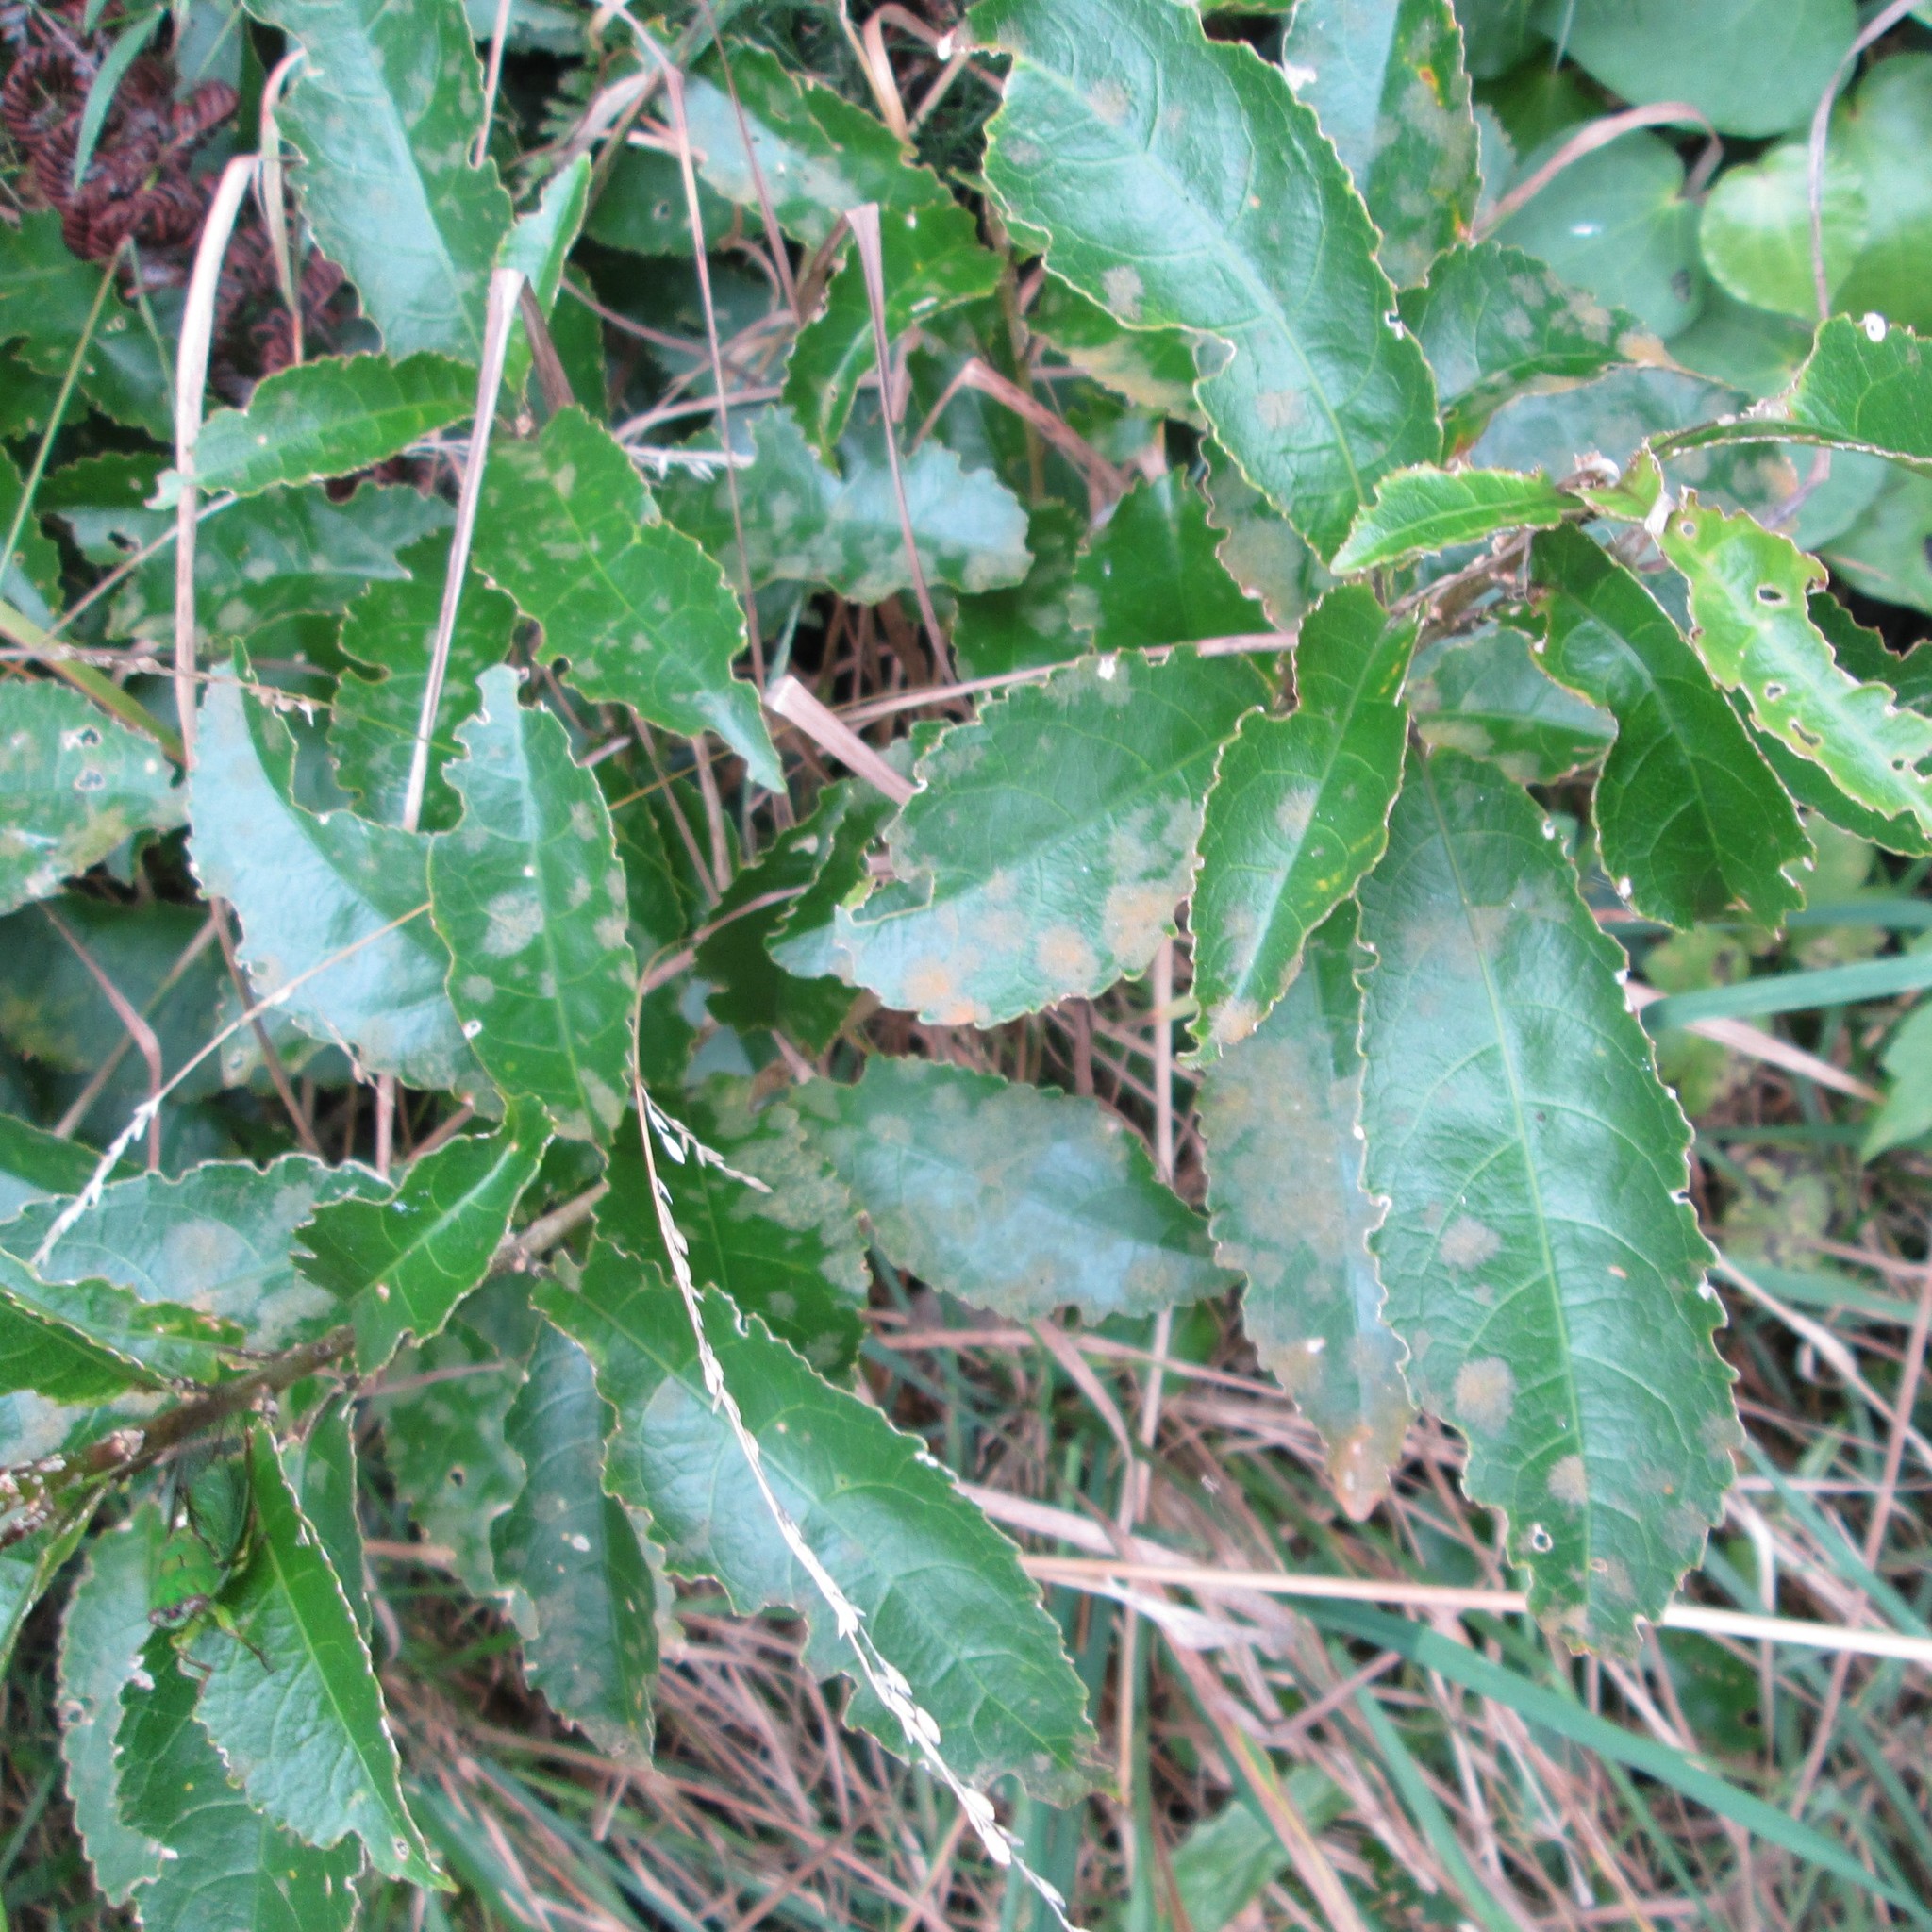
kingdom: Plantae
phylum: Tracheophyta
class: Magnoliopsida
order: Malpighiales
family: Violaceae
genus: Melicytus
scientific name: Melicytus ramiflorus
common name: Mahoe
